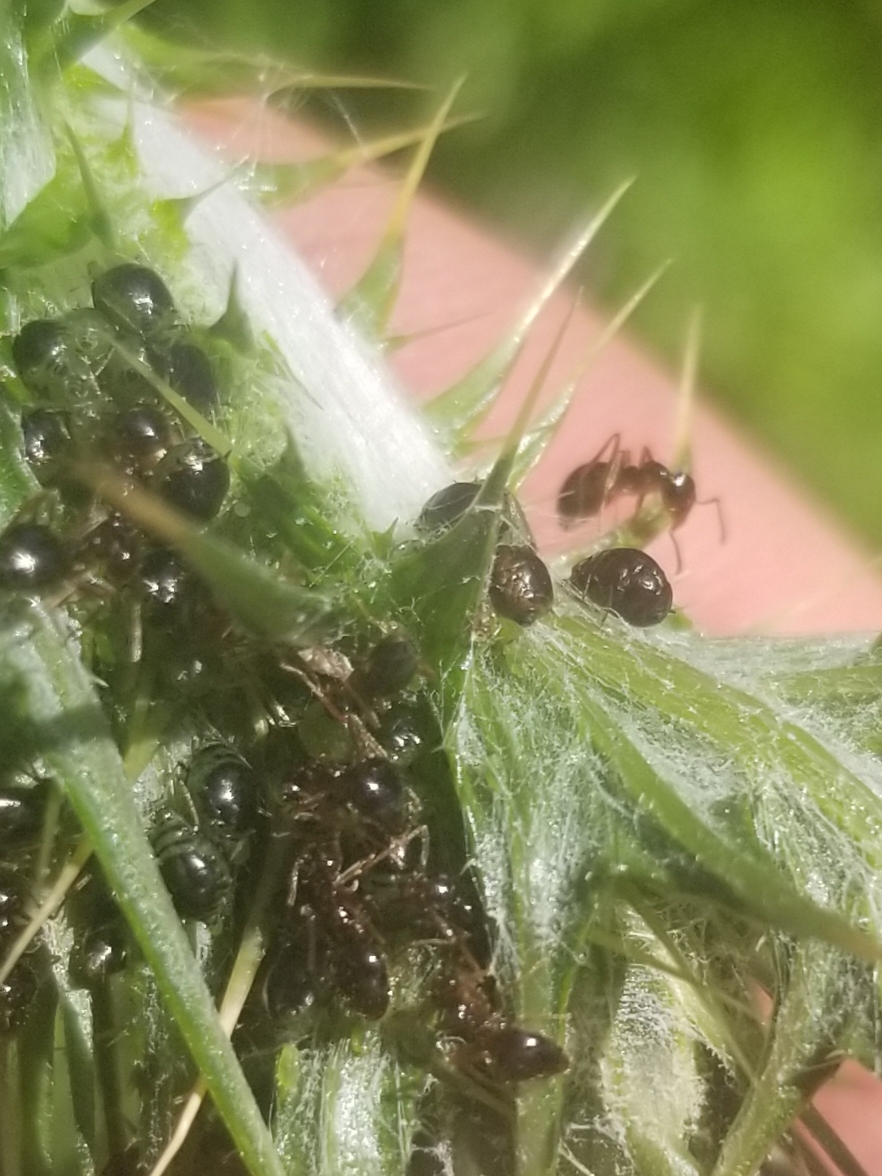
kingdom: Animalia
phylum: Arthropoda
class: Insecta
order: Hymenoptera
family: Formicidae
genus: Prenolepis
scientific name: Prenolepis imparis
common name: Small honey ant
